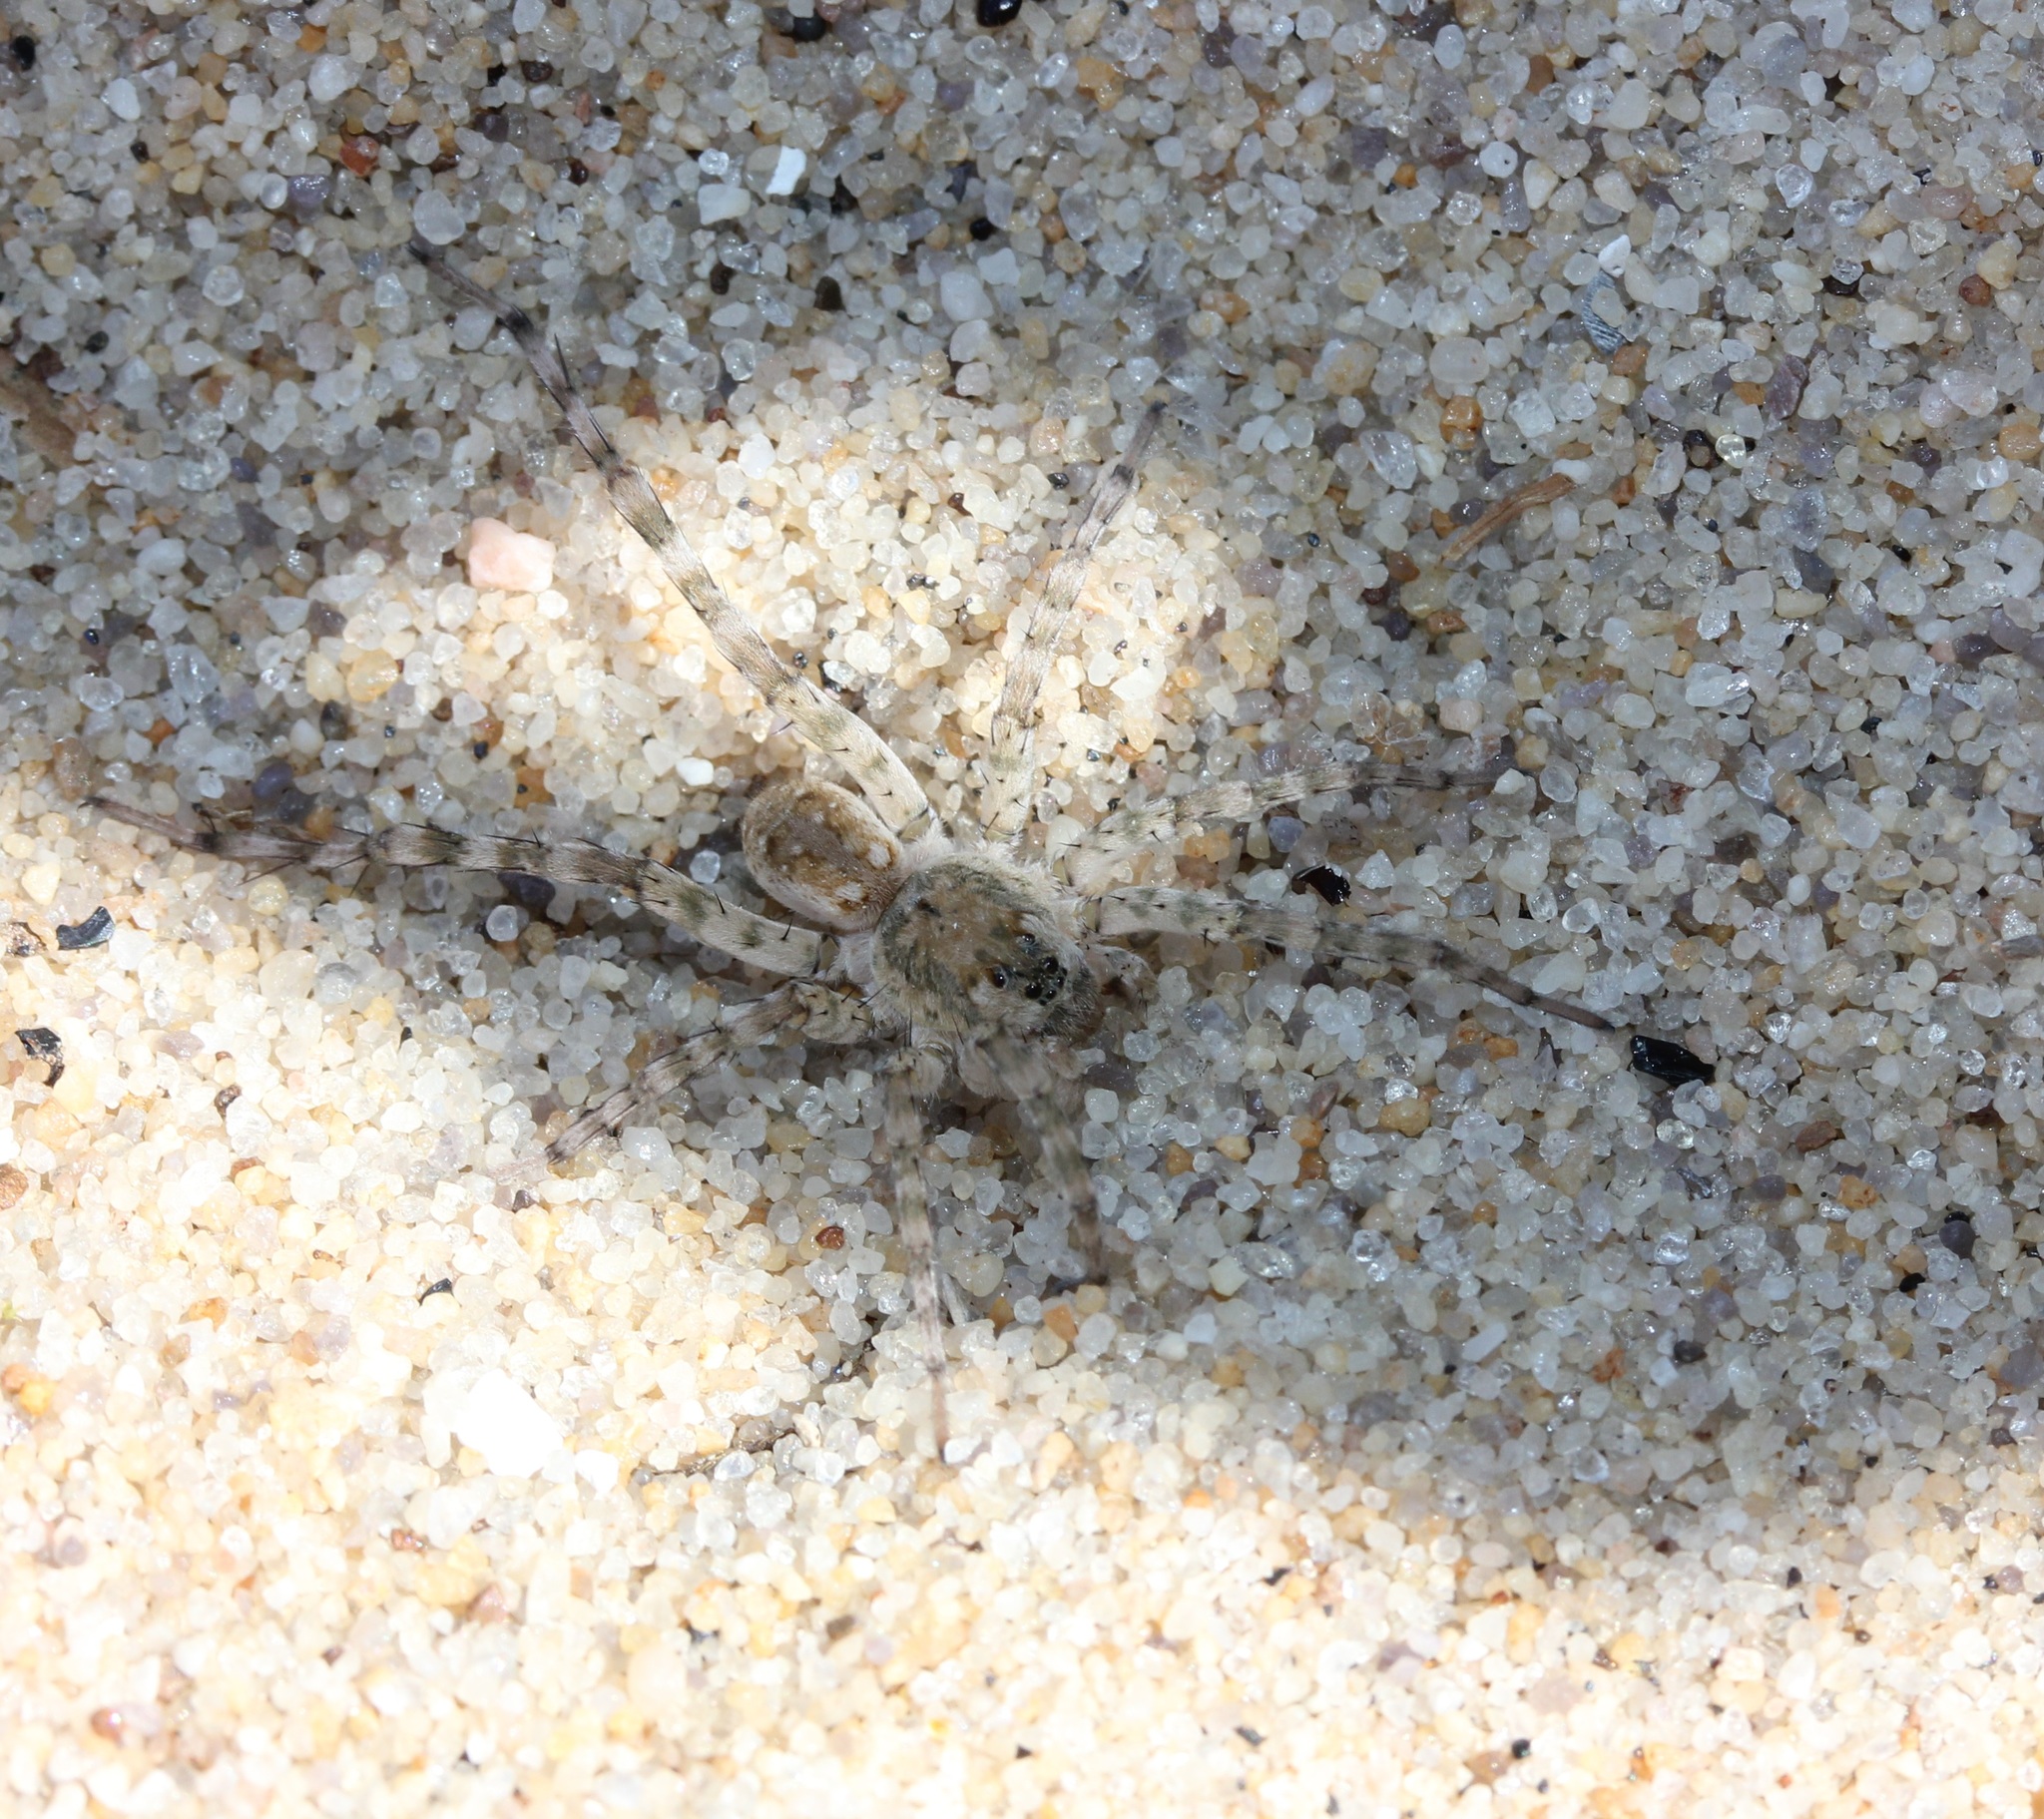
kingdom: Animalia
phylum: Arthropoda
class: Arachnida
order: Araneae
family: Lycosidae
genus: Arctosa
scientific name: Arctosa littoralis
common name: Wolf spiders
